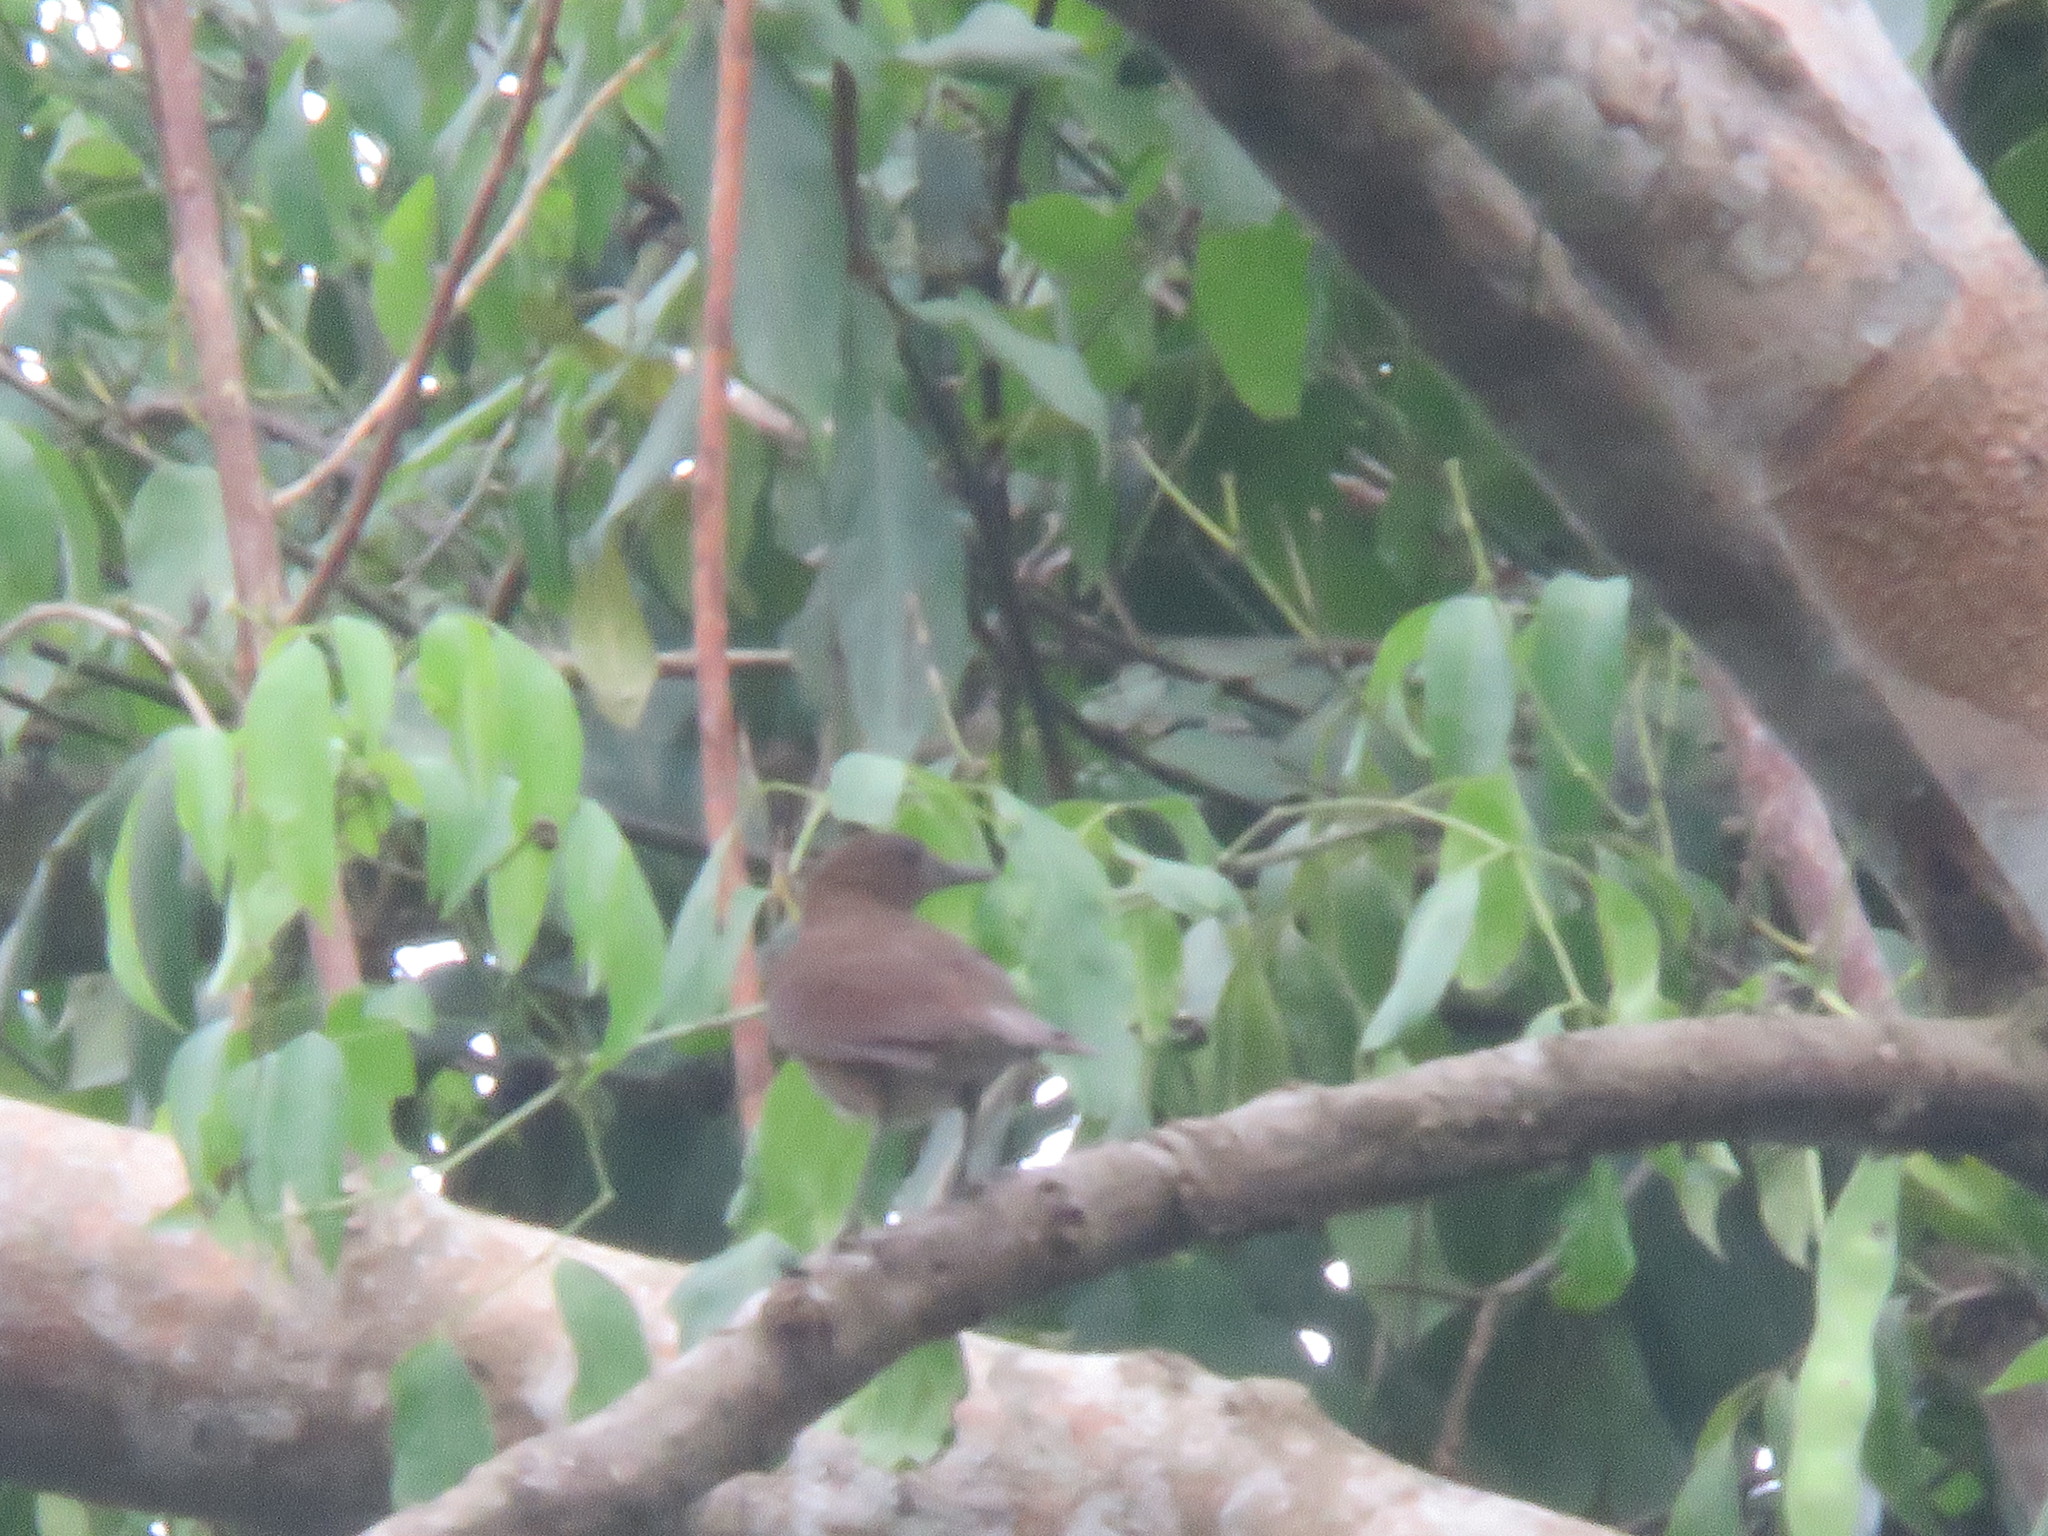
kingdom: Animalia
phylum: Chordata
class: Aves
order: Passeriformes
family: Turdidae
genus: Turdus
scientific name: Turdus ignobilis
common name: Black-billed thrush
